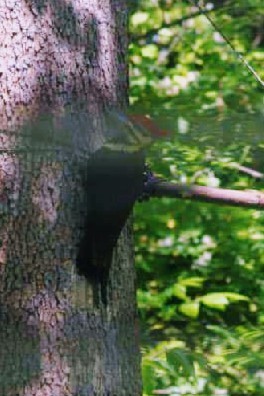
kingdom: Animalia
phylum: Chordata
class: Aves
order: Piciformes
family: Picidae
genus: Dryocopus
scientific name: Dryocopus pileatus
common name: Pileated woodpecker
